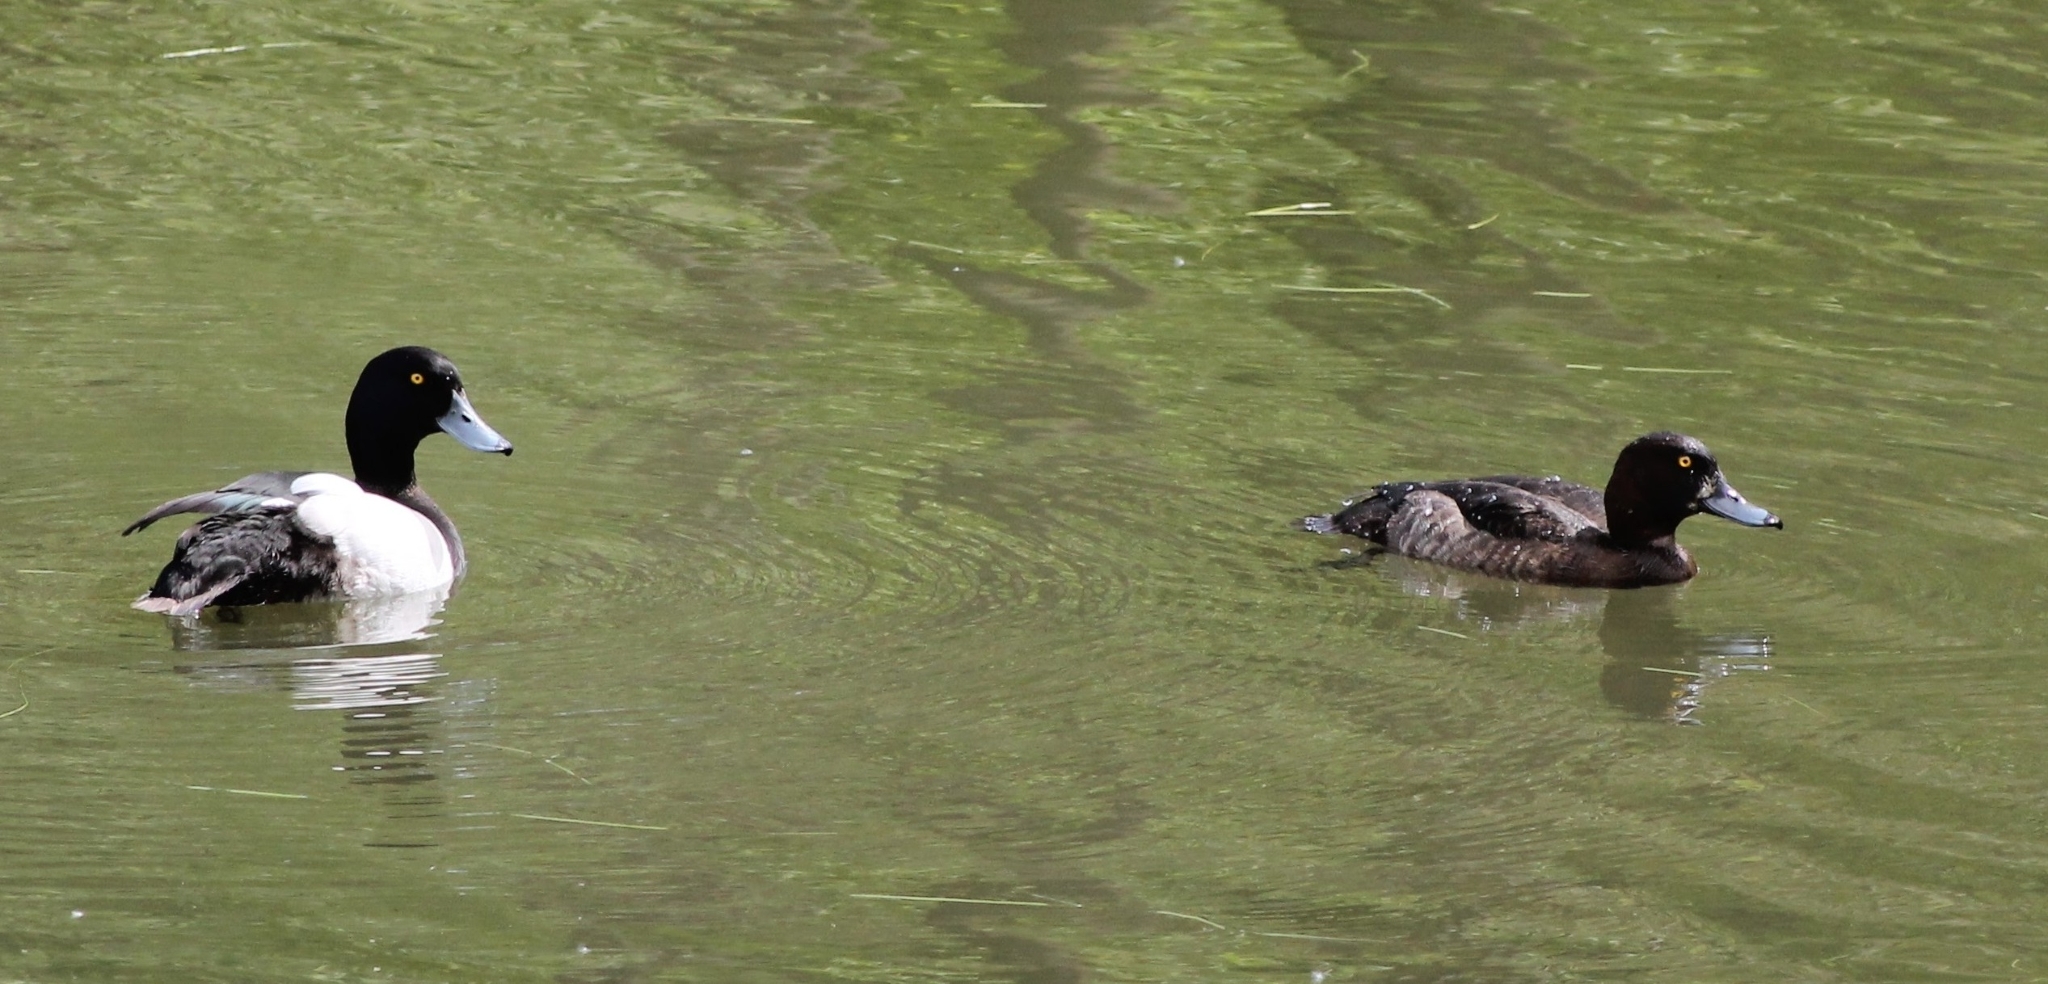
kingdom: Animalia
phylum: Chordata
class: Aves
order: Anseriformes
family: Anatidae
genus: Aythya
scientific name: Aythya fuligula
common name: Tufted duck
